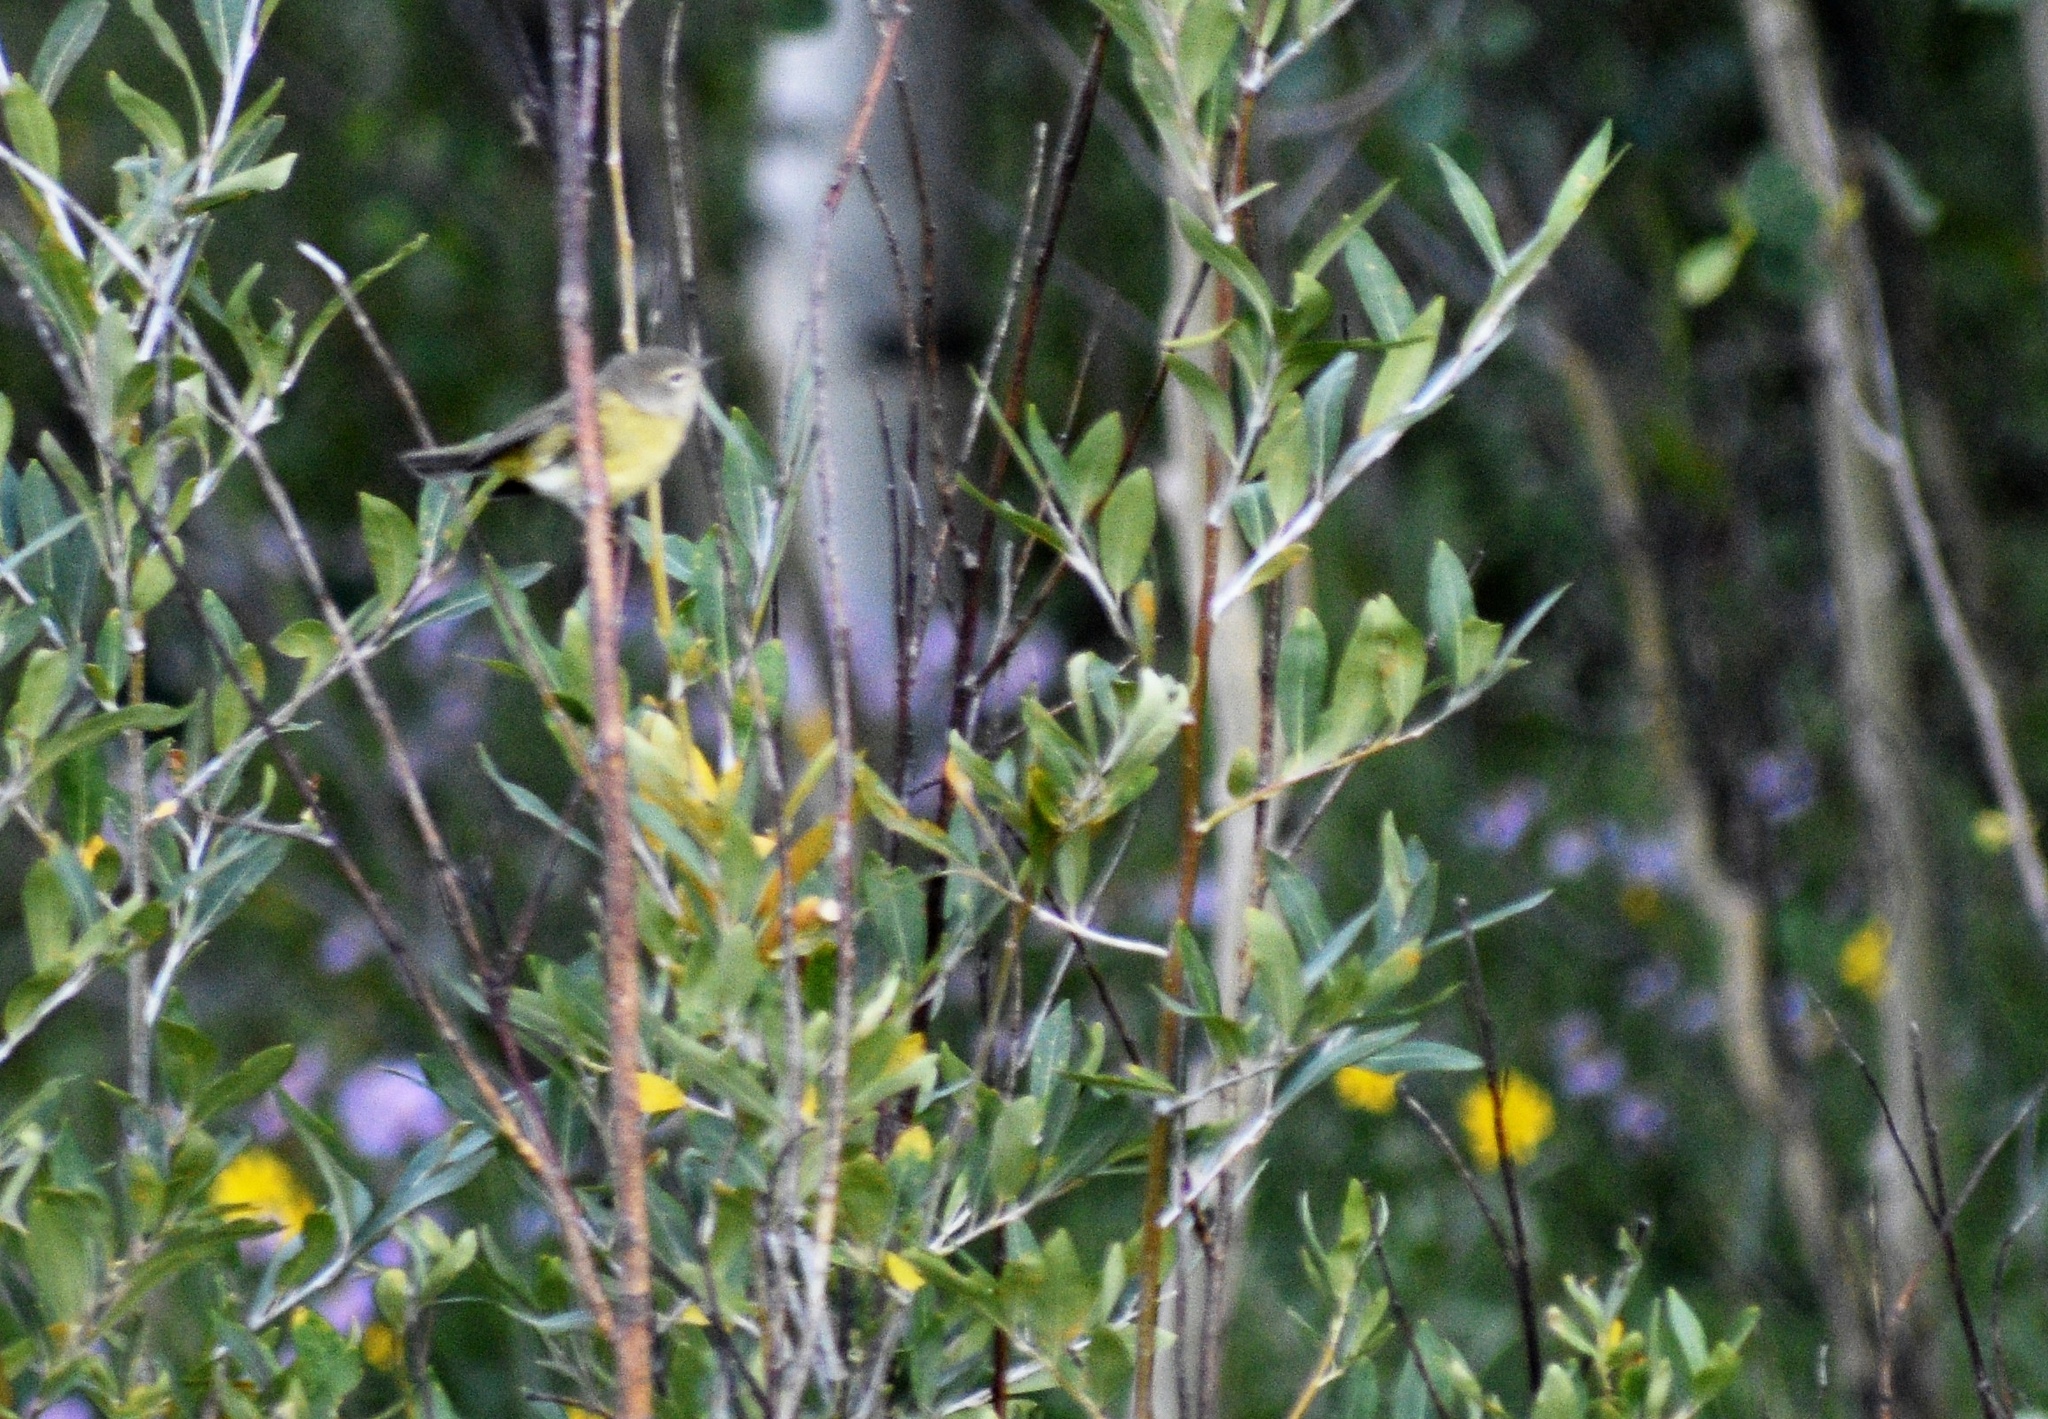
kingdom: Animalia
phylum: Chordata
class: Aves
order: Passeriformes
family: Parulidae
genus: Geothlypis
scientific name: Geothlypis tolmiei
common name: Macgillivray's warbler
